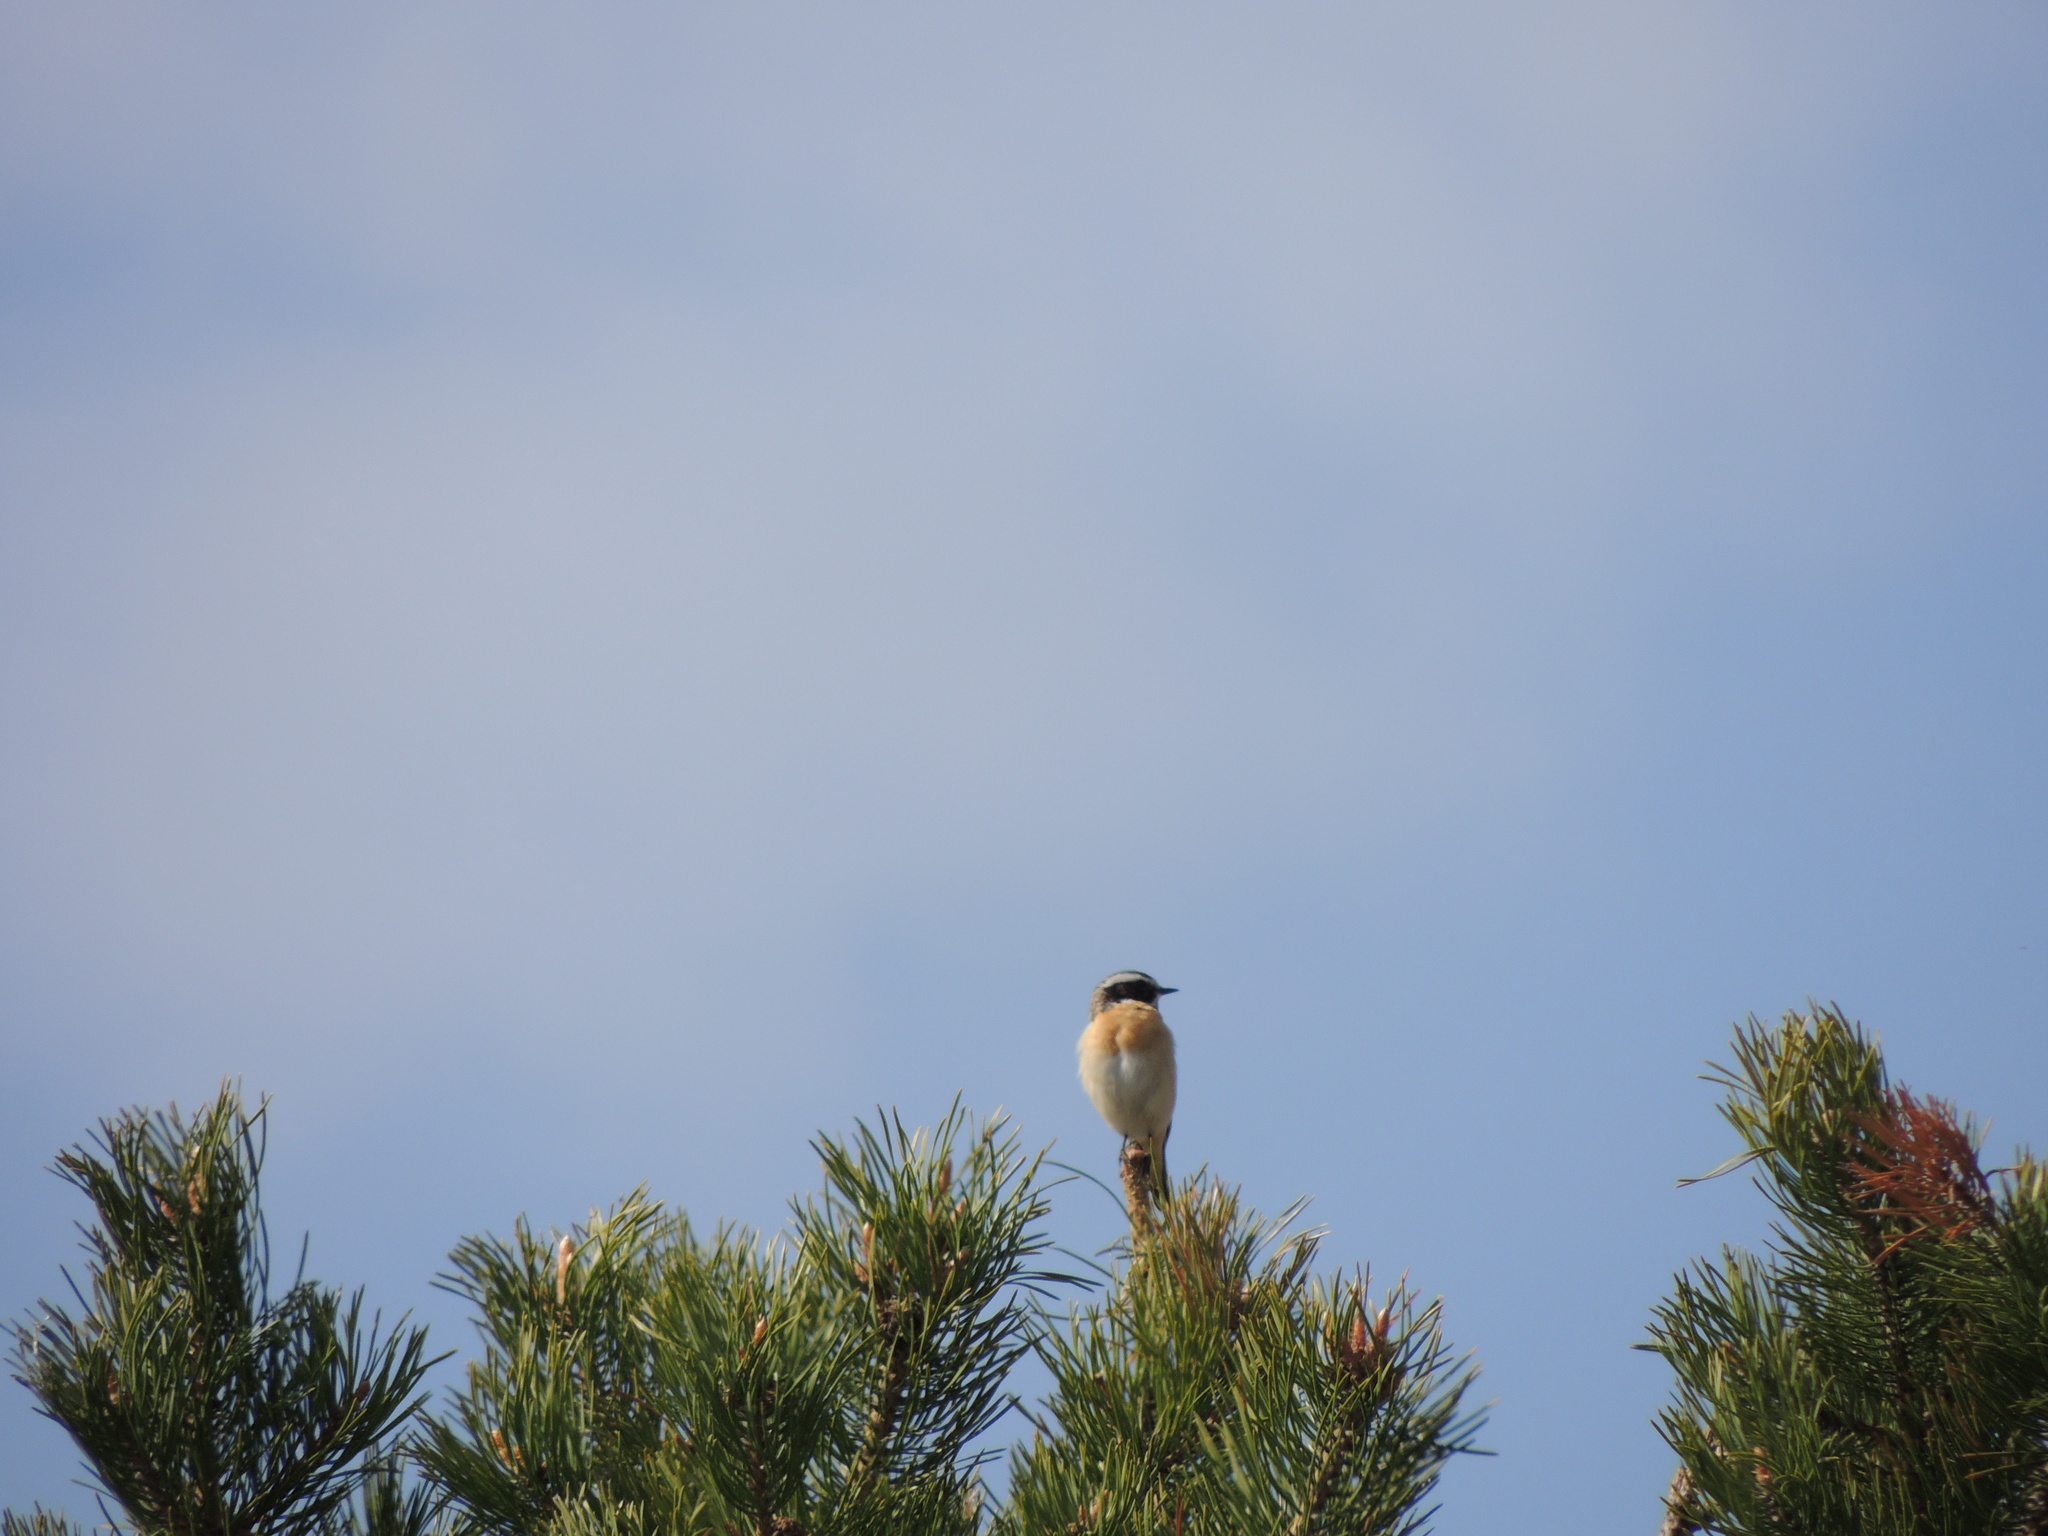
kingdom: Animalia
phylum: Chordata
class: Aves
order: Passeriformes
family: Muscicapidae
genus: Saxicola
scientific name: Saxicola rubetra
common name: Whinchat
